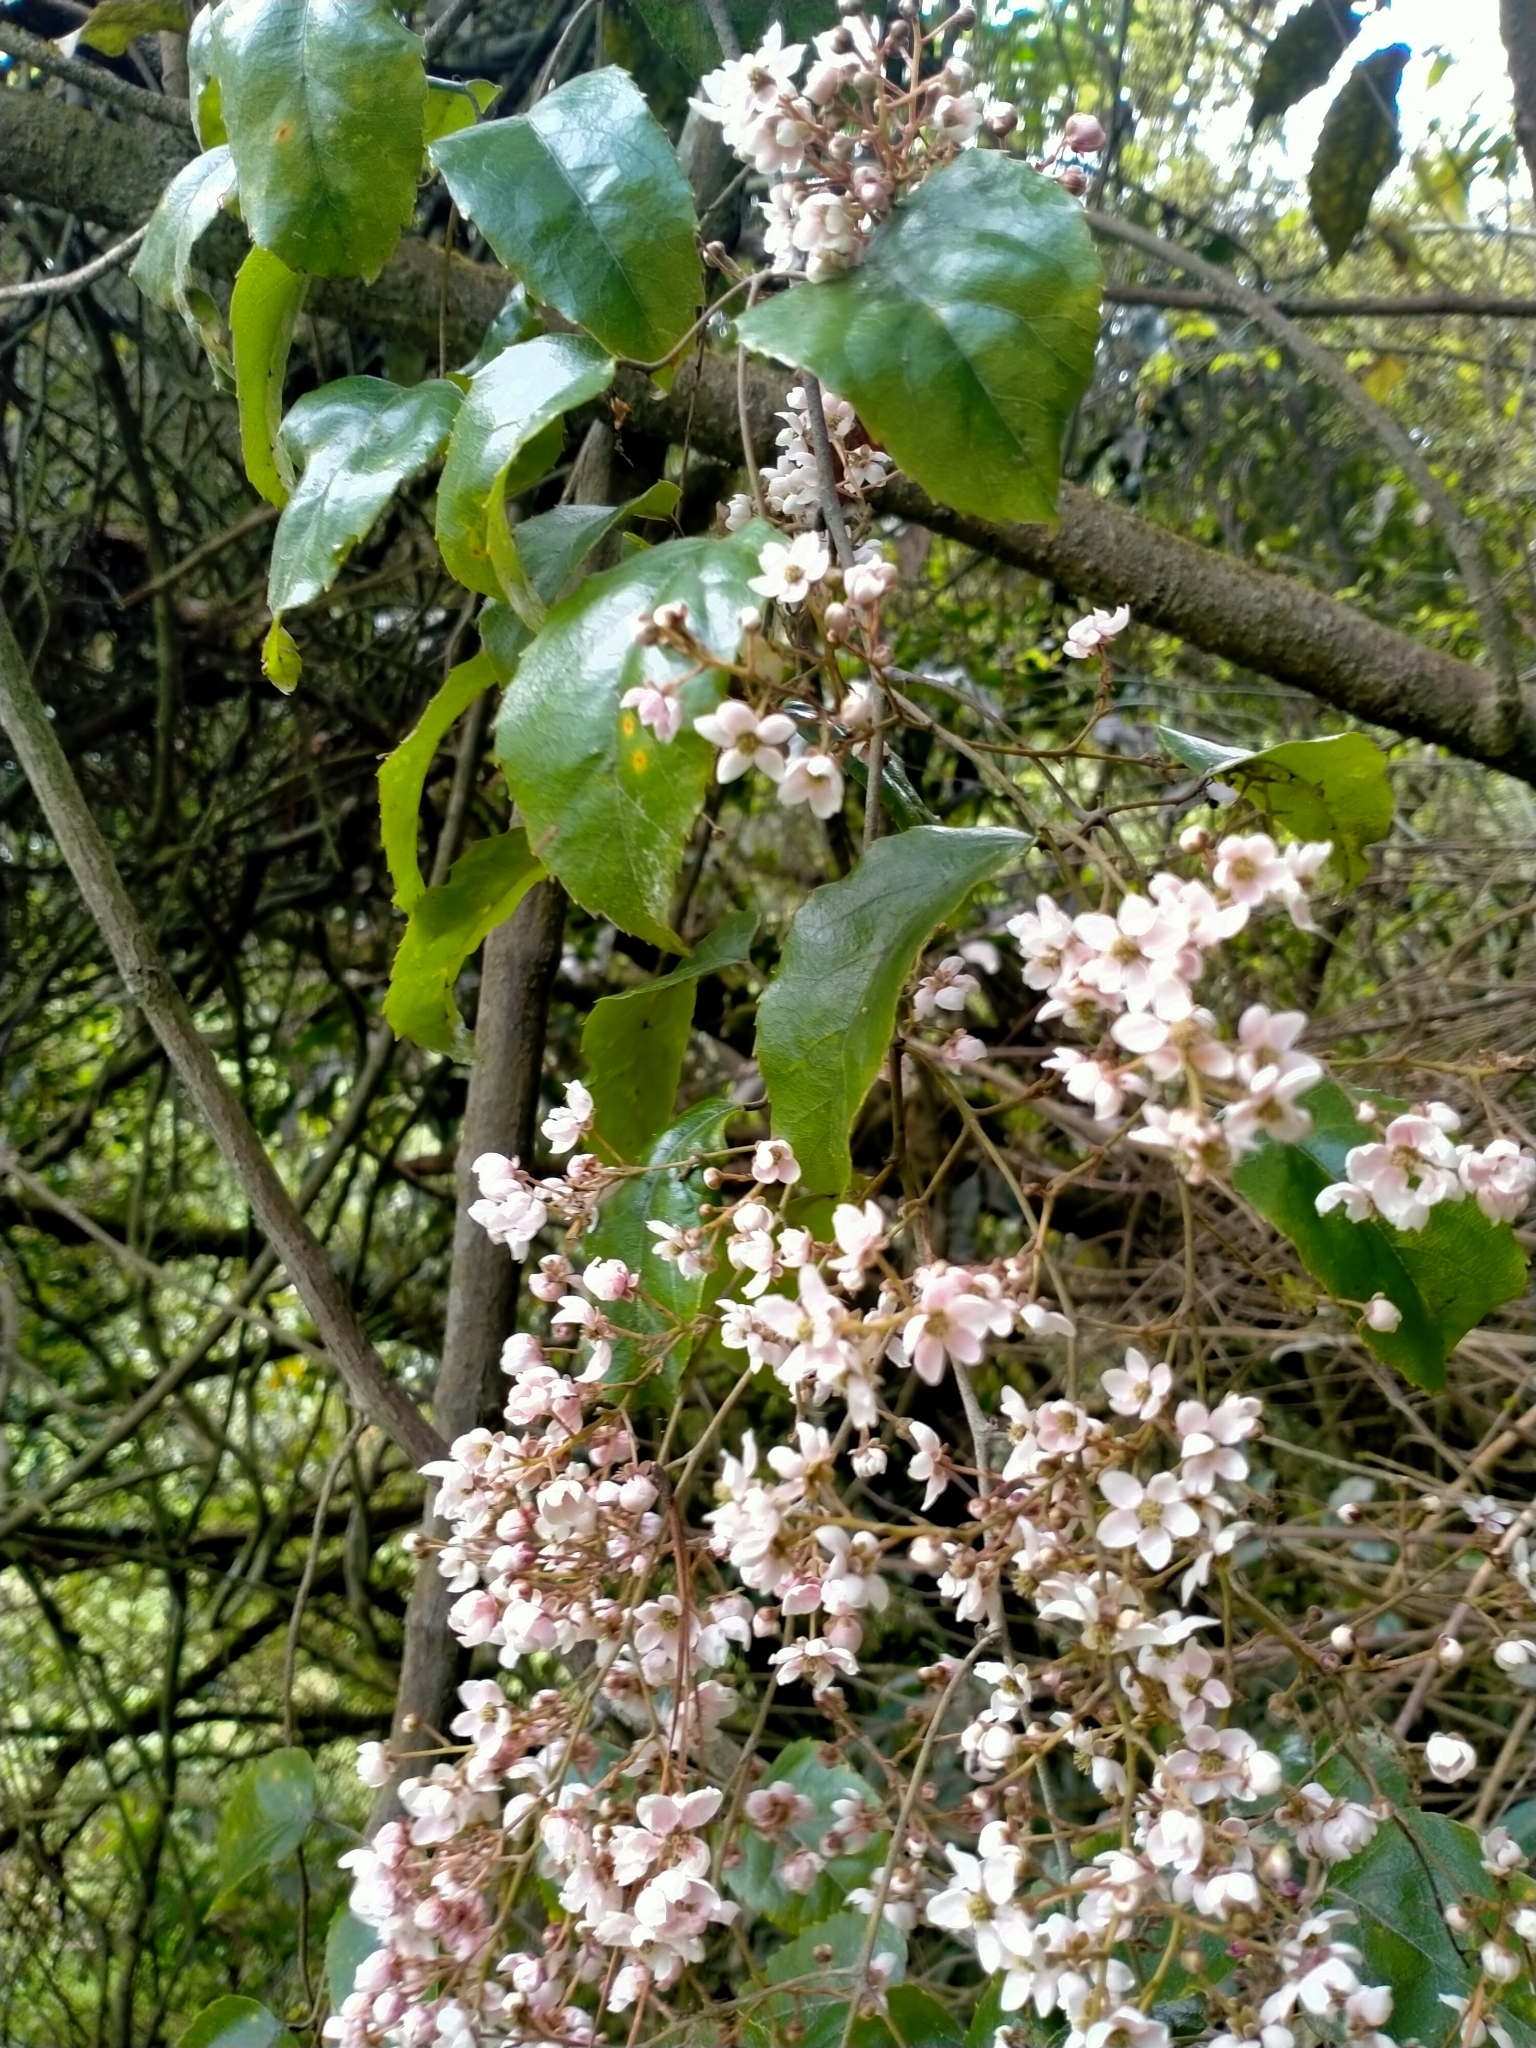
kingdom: Plantae
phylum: Tracheophyta
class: Magnoliopsida
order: Rosales
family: Rosaceae
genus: Rubus
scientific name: Rubus cissoides
